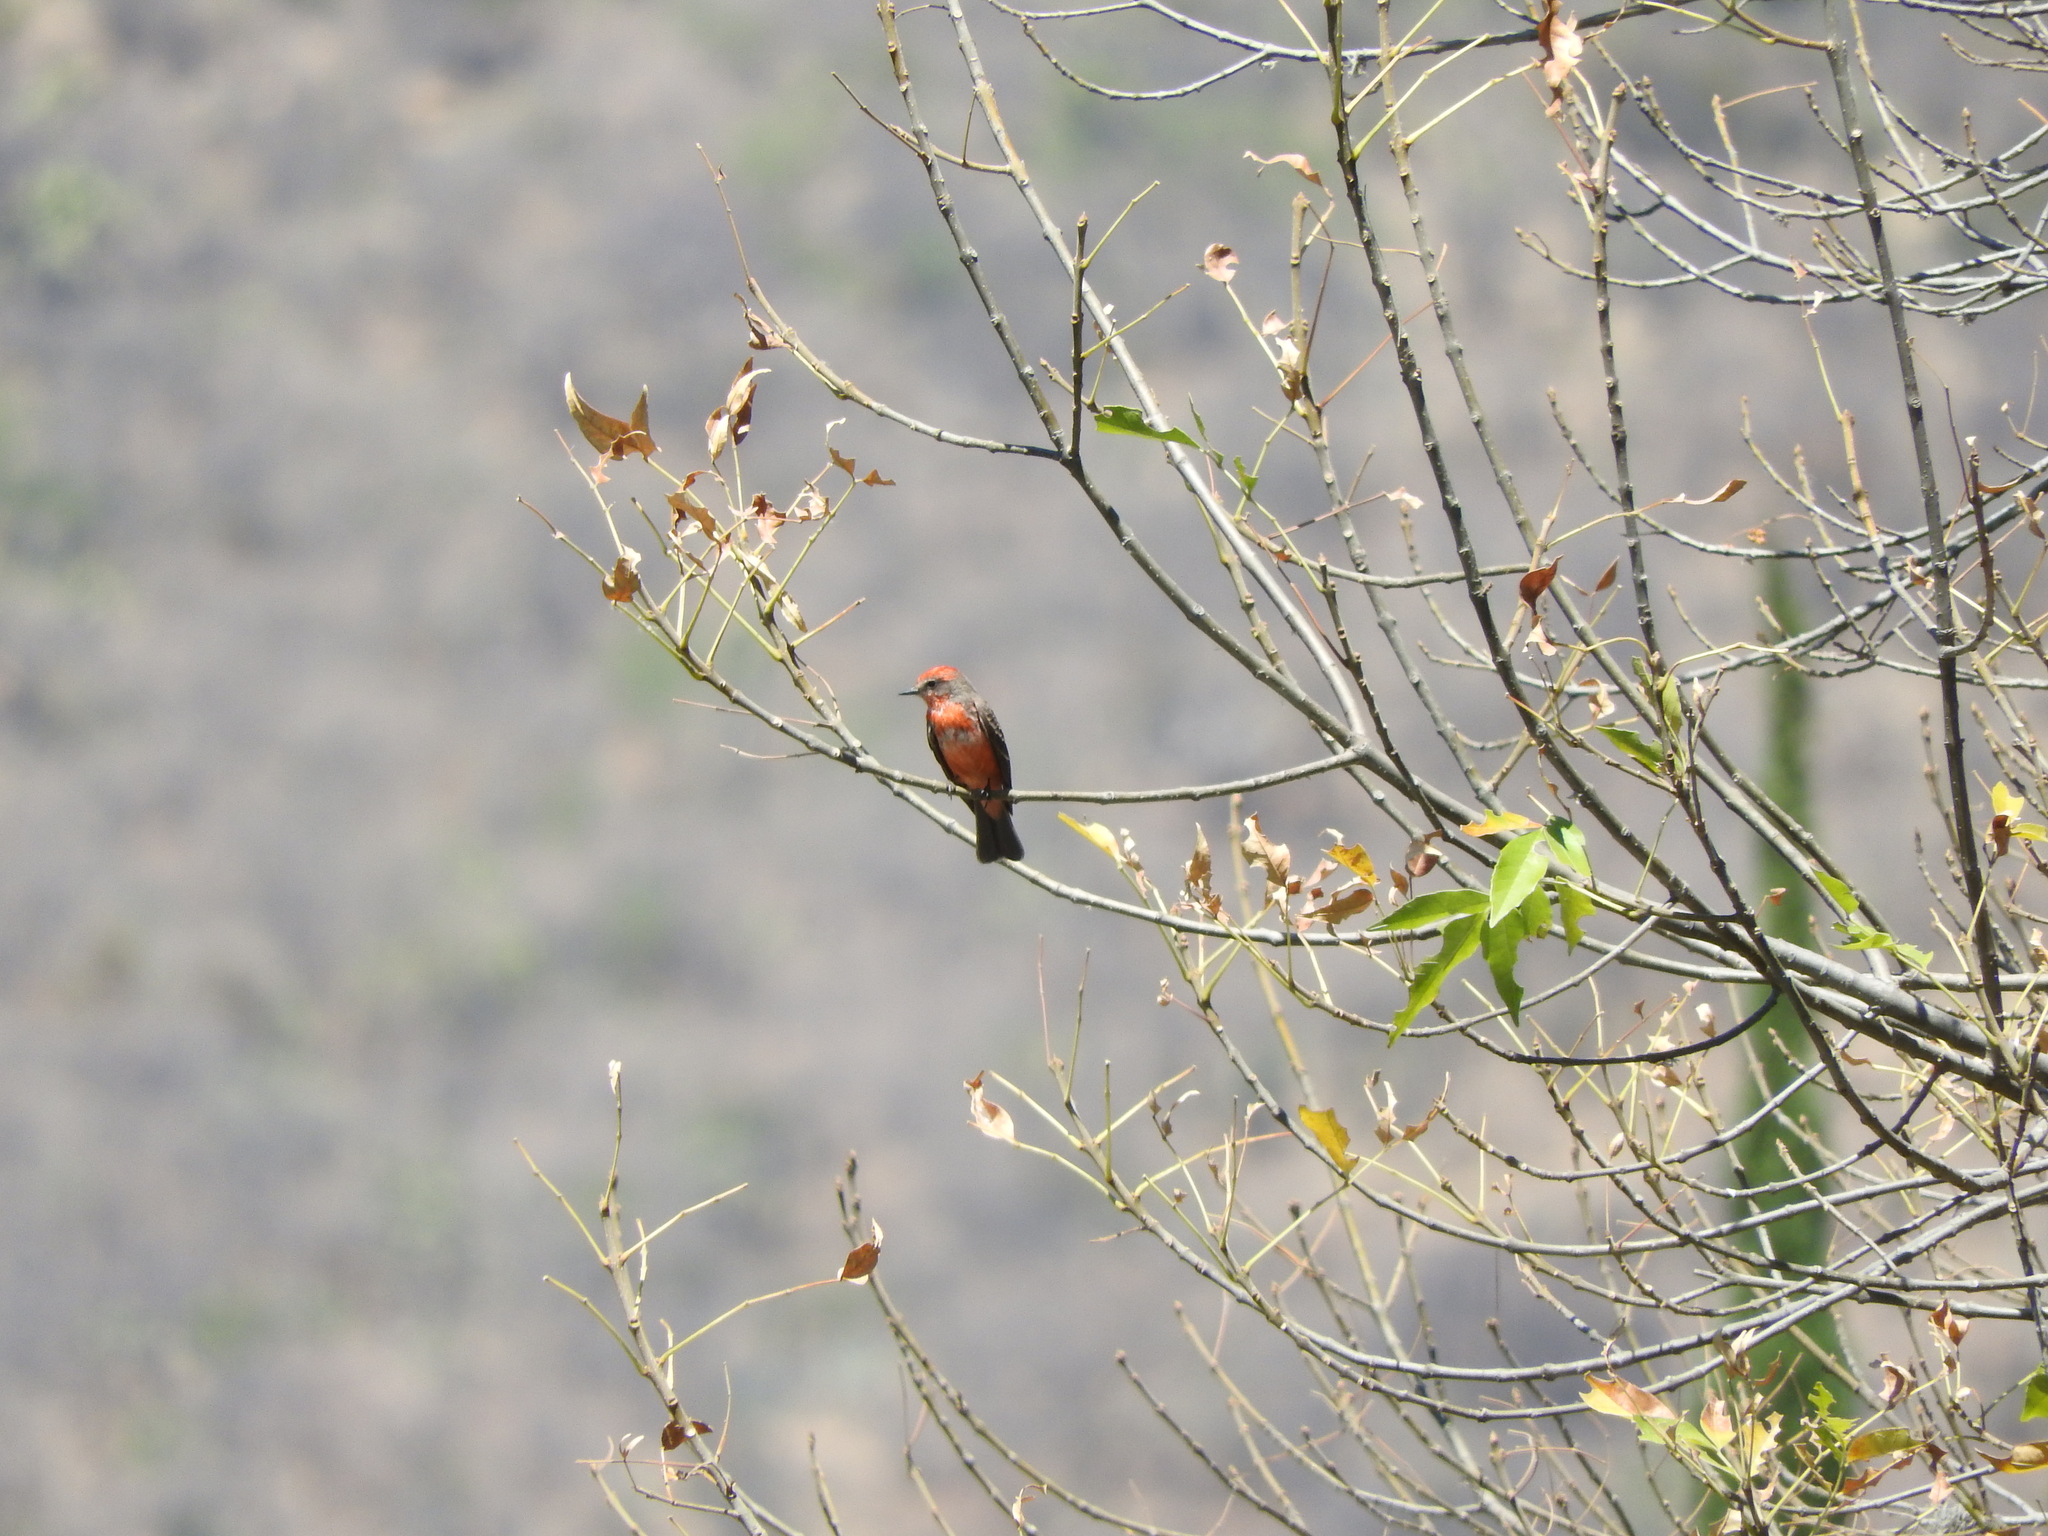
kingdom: Animalia
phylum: Chordata
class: Aves
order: Passeriformes
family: Tyrannidae
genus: Pyrocephalus
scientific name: Pyrocephalus rubinus
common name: Vermilion flycatcher
